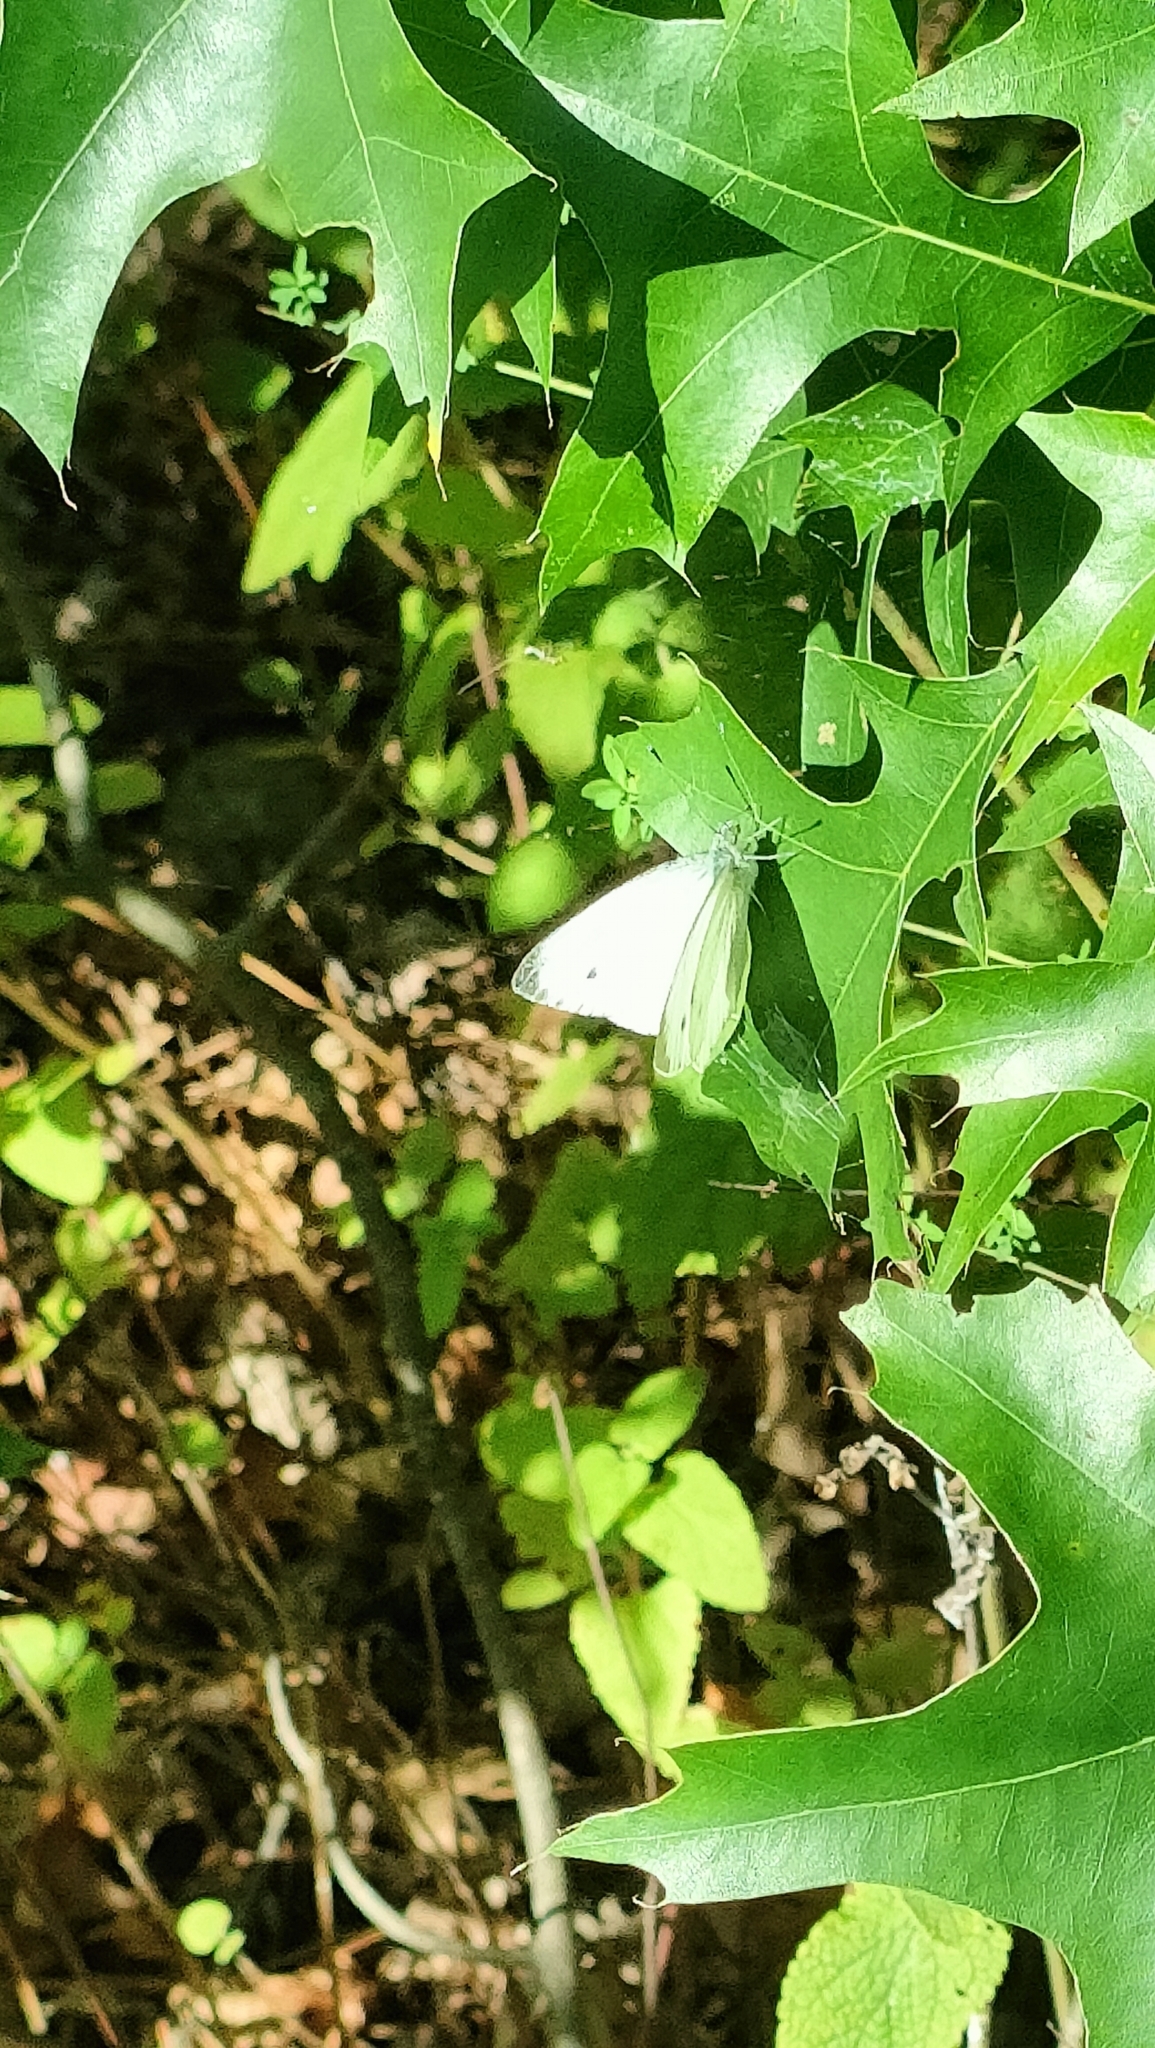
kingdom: Animalia
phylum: Arthropoda
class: Insecta
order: Lepidoptera
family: Pieridae
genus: Pieris
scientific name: Pieris napi
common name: Green-veined white
